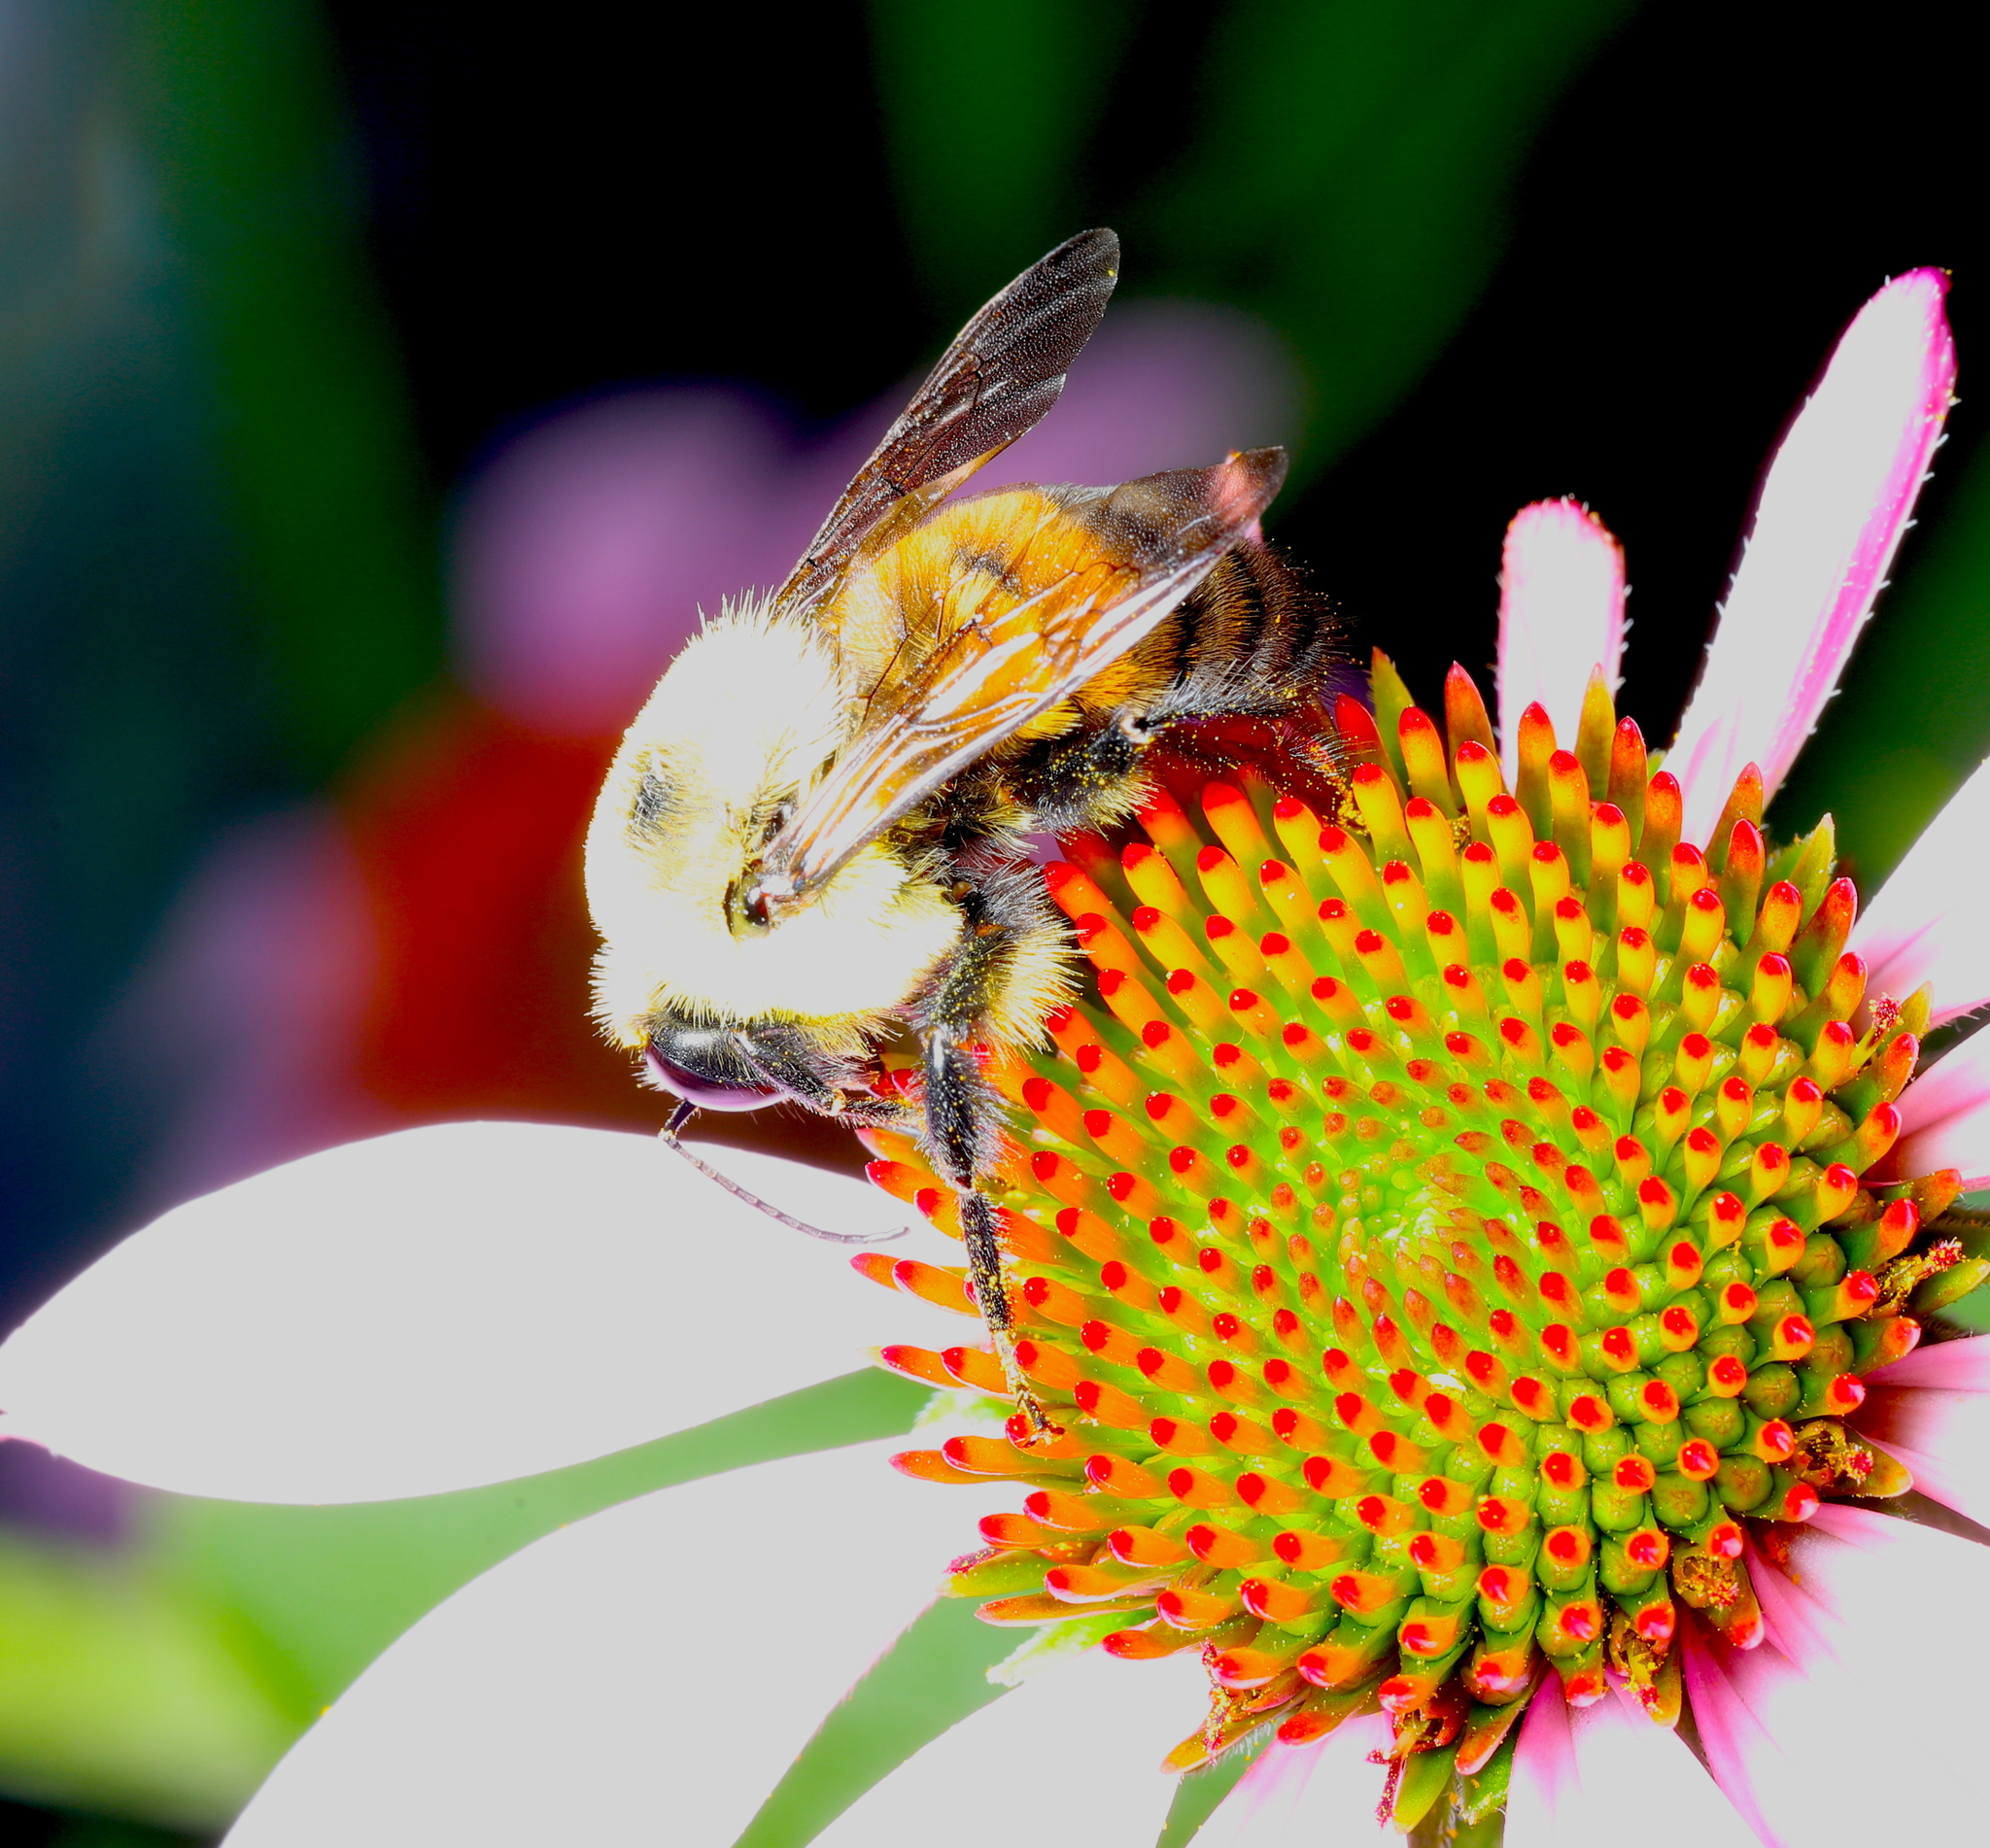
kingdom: Animalia
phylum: Arthropoda
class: Insecta
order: Hymenoptera
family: Apidae
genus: Bombus
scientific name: Bombus griseocollis
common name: Brown-belted bumble bee
